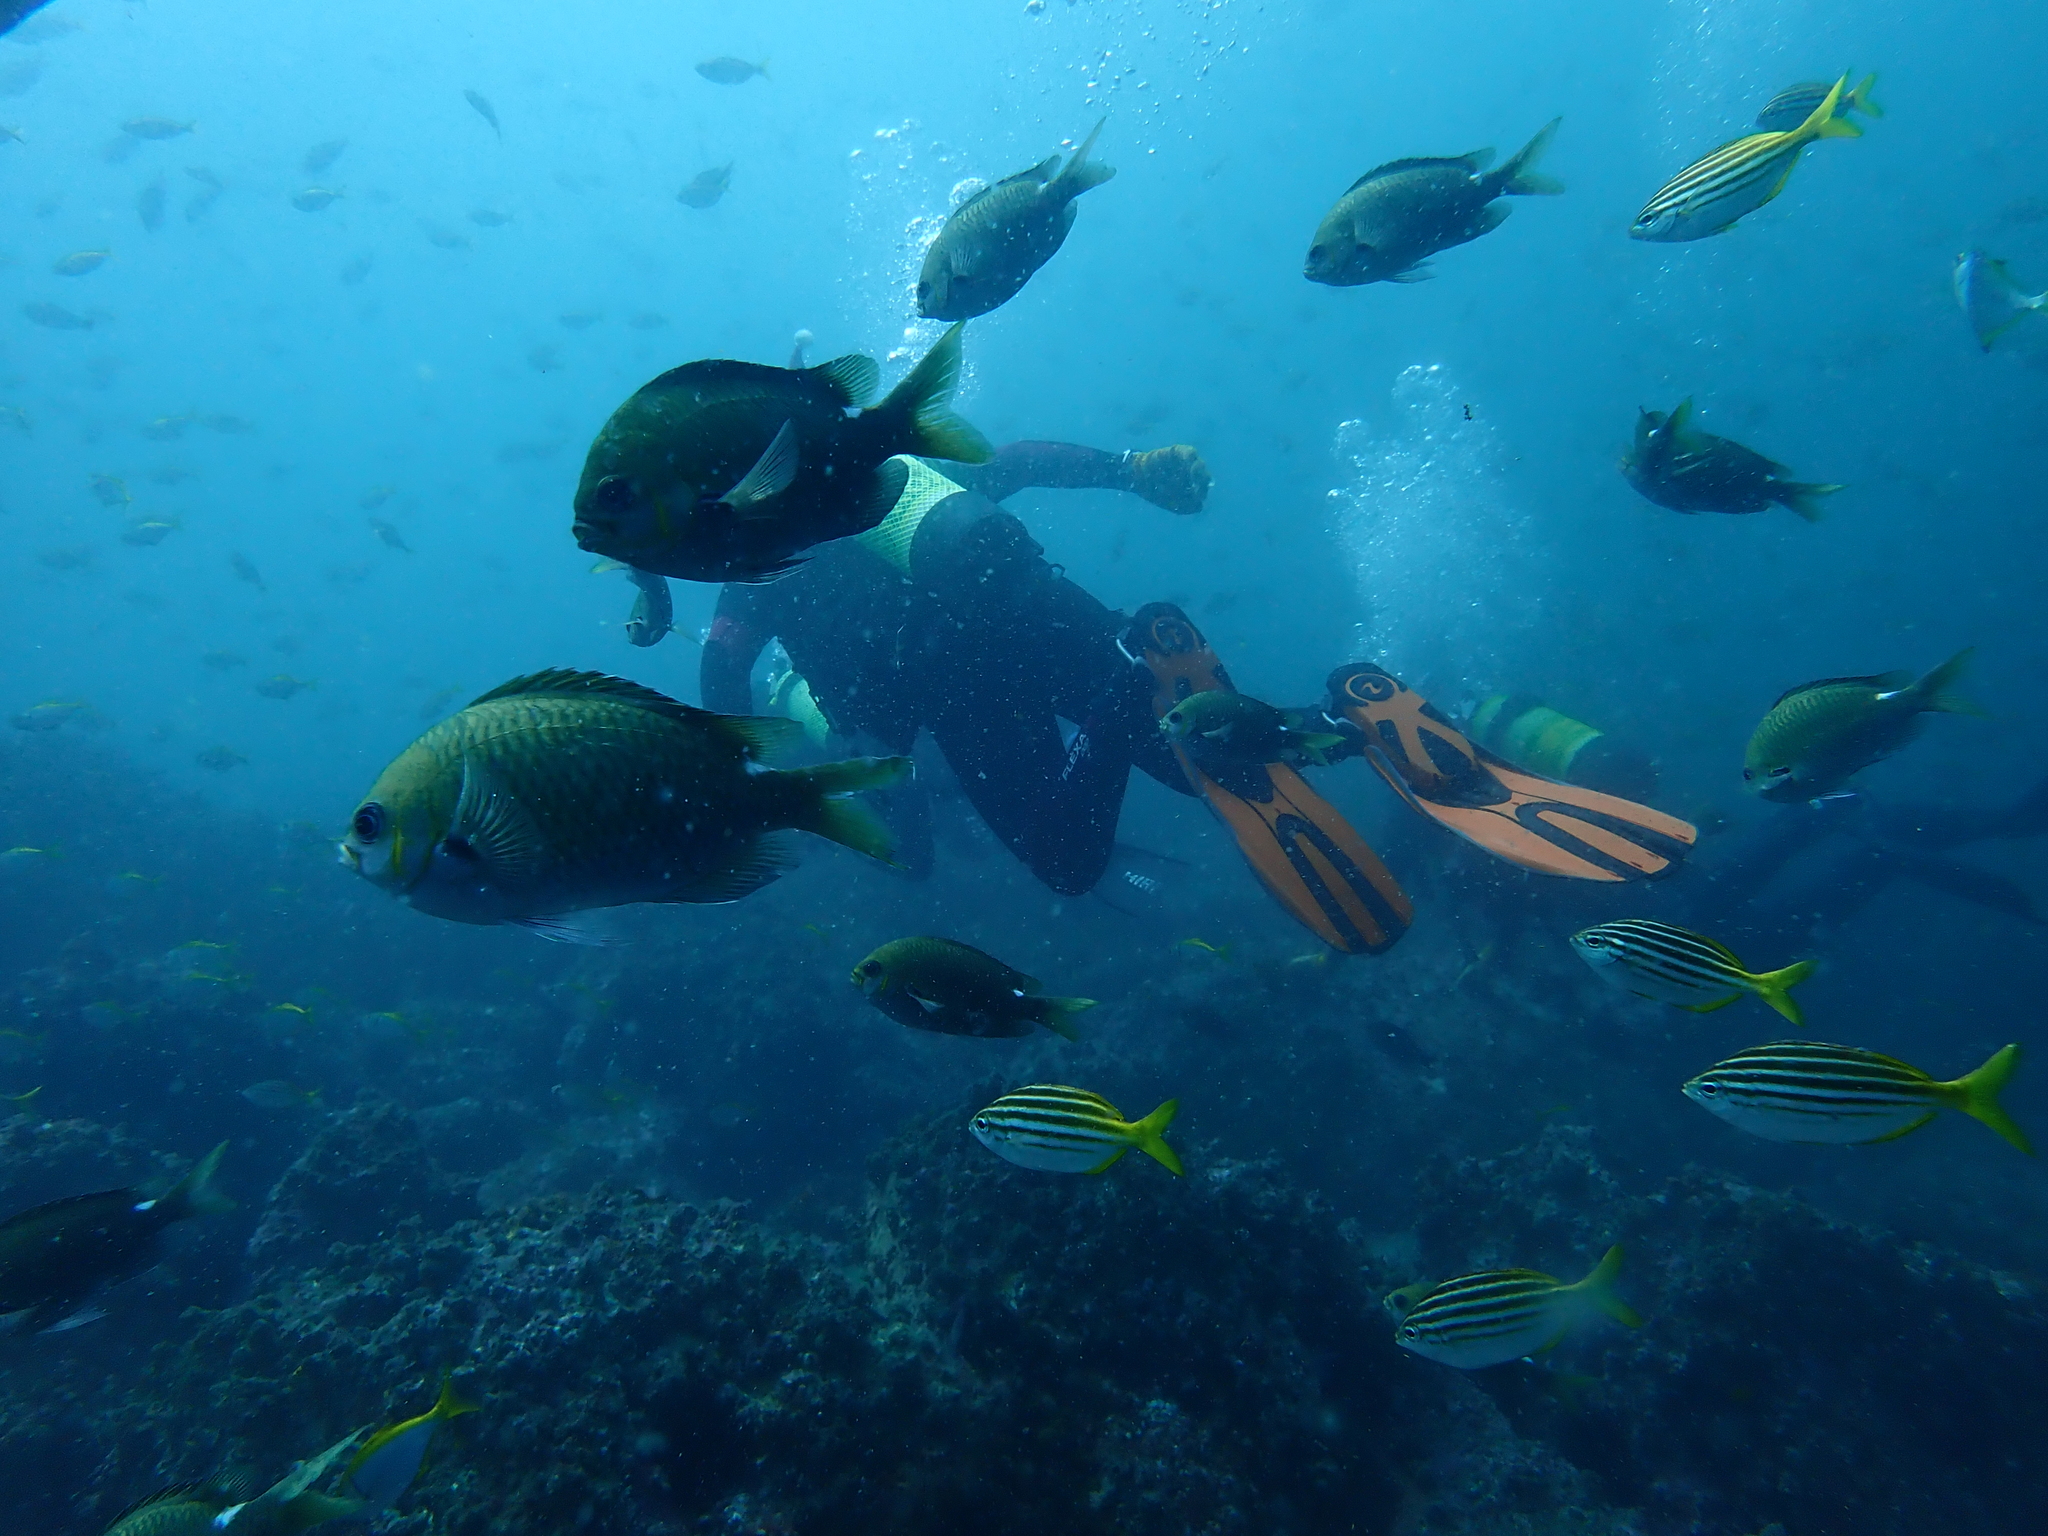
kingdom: Animalia
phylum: Chordata
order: Perciformes
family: Pomacentridae
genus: Chromis
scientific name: Chromis hypsilepis
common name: Brown puller
